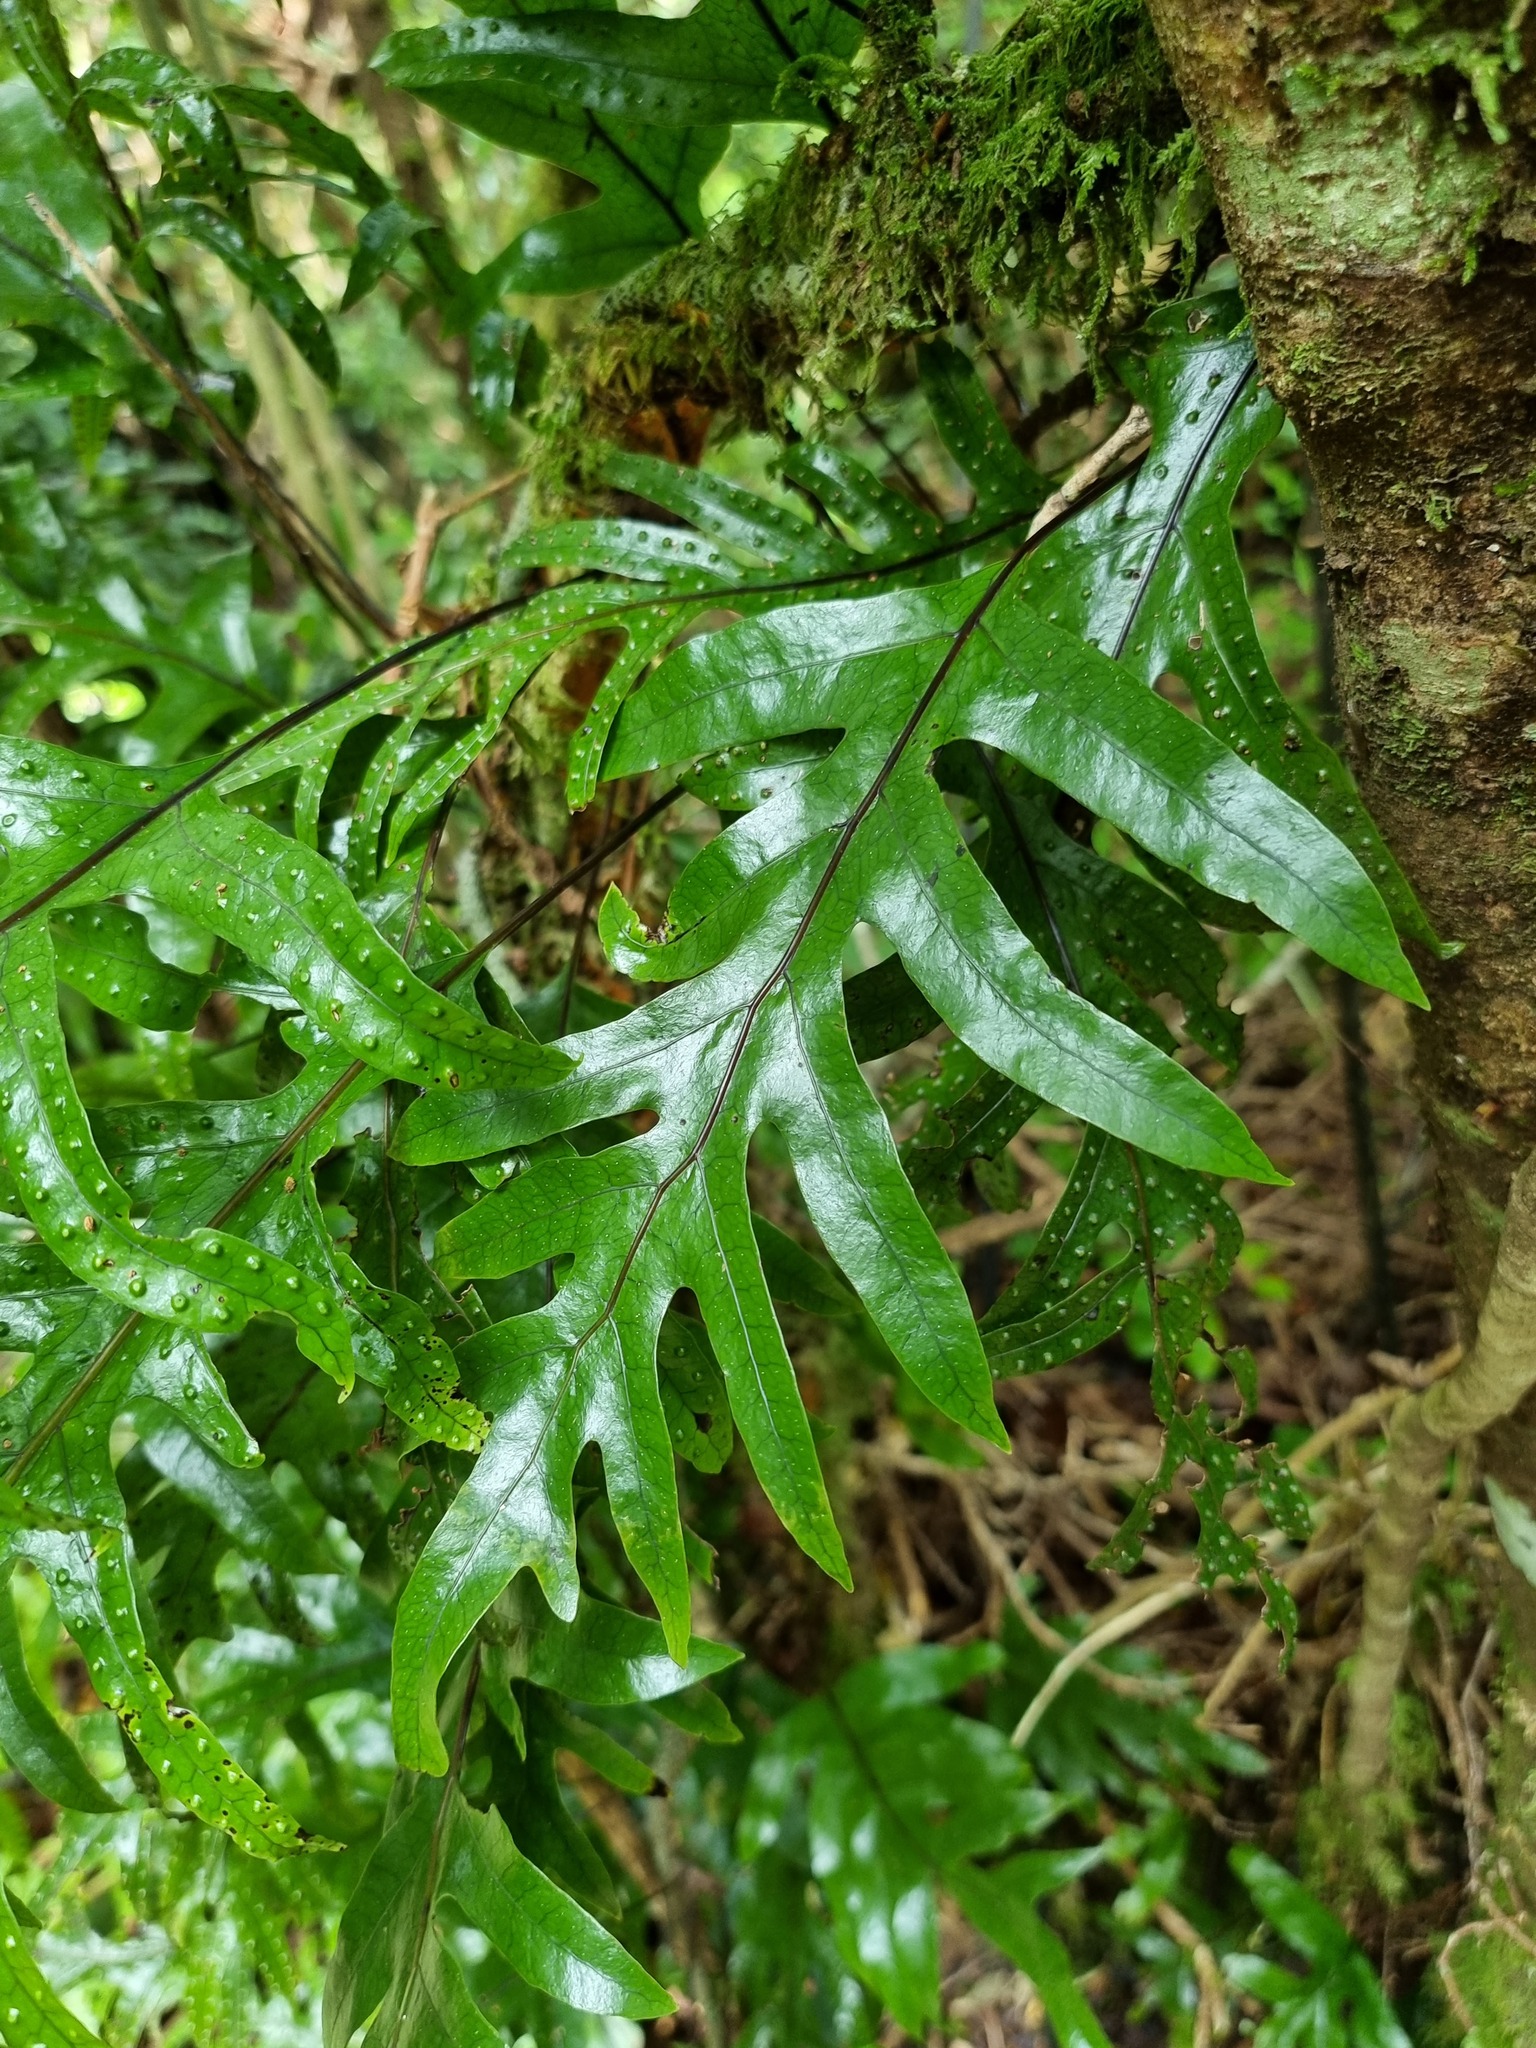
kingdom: Plantae
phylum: Tracheophyta
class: Polypodiopsida
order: Polypodiales
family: Polypodiaceae
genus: Lecanopteris
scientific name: Lecanopteris pustulata
